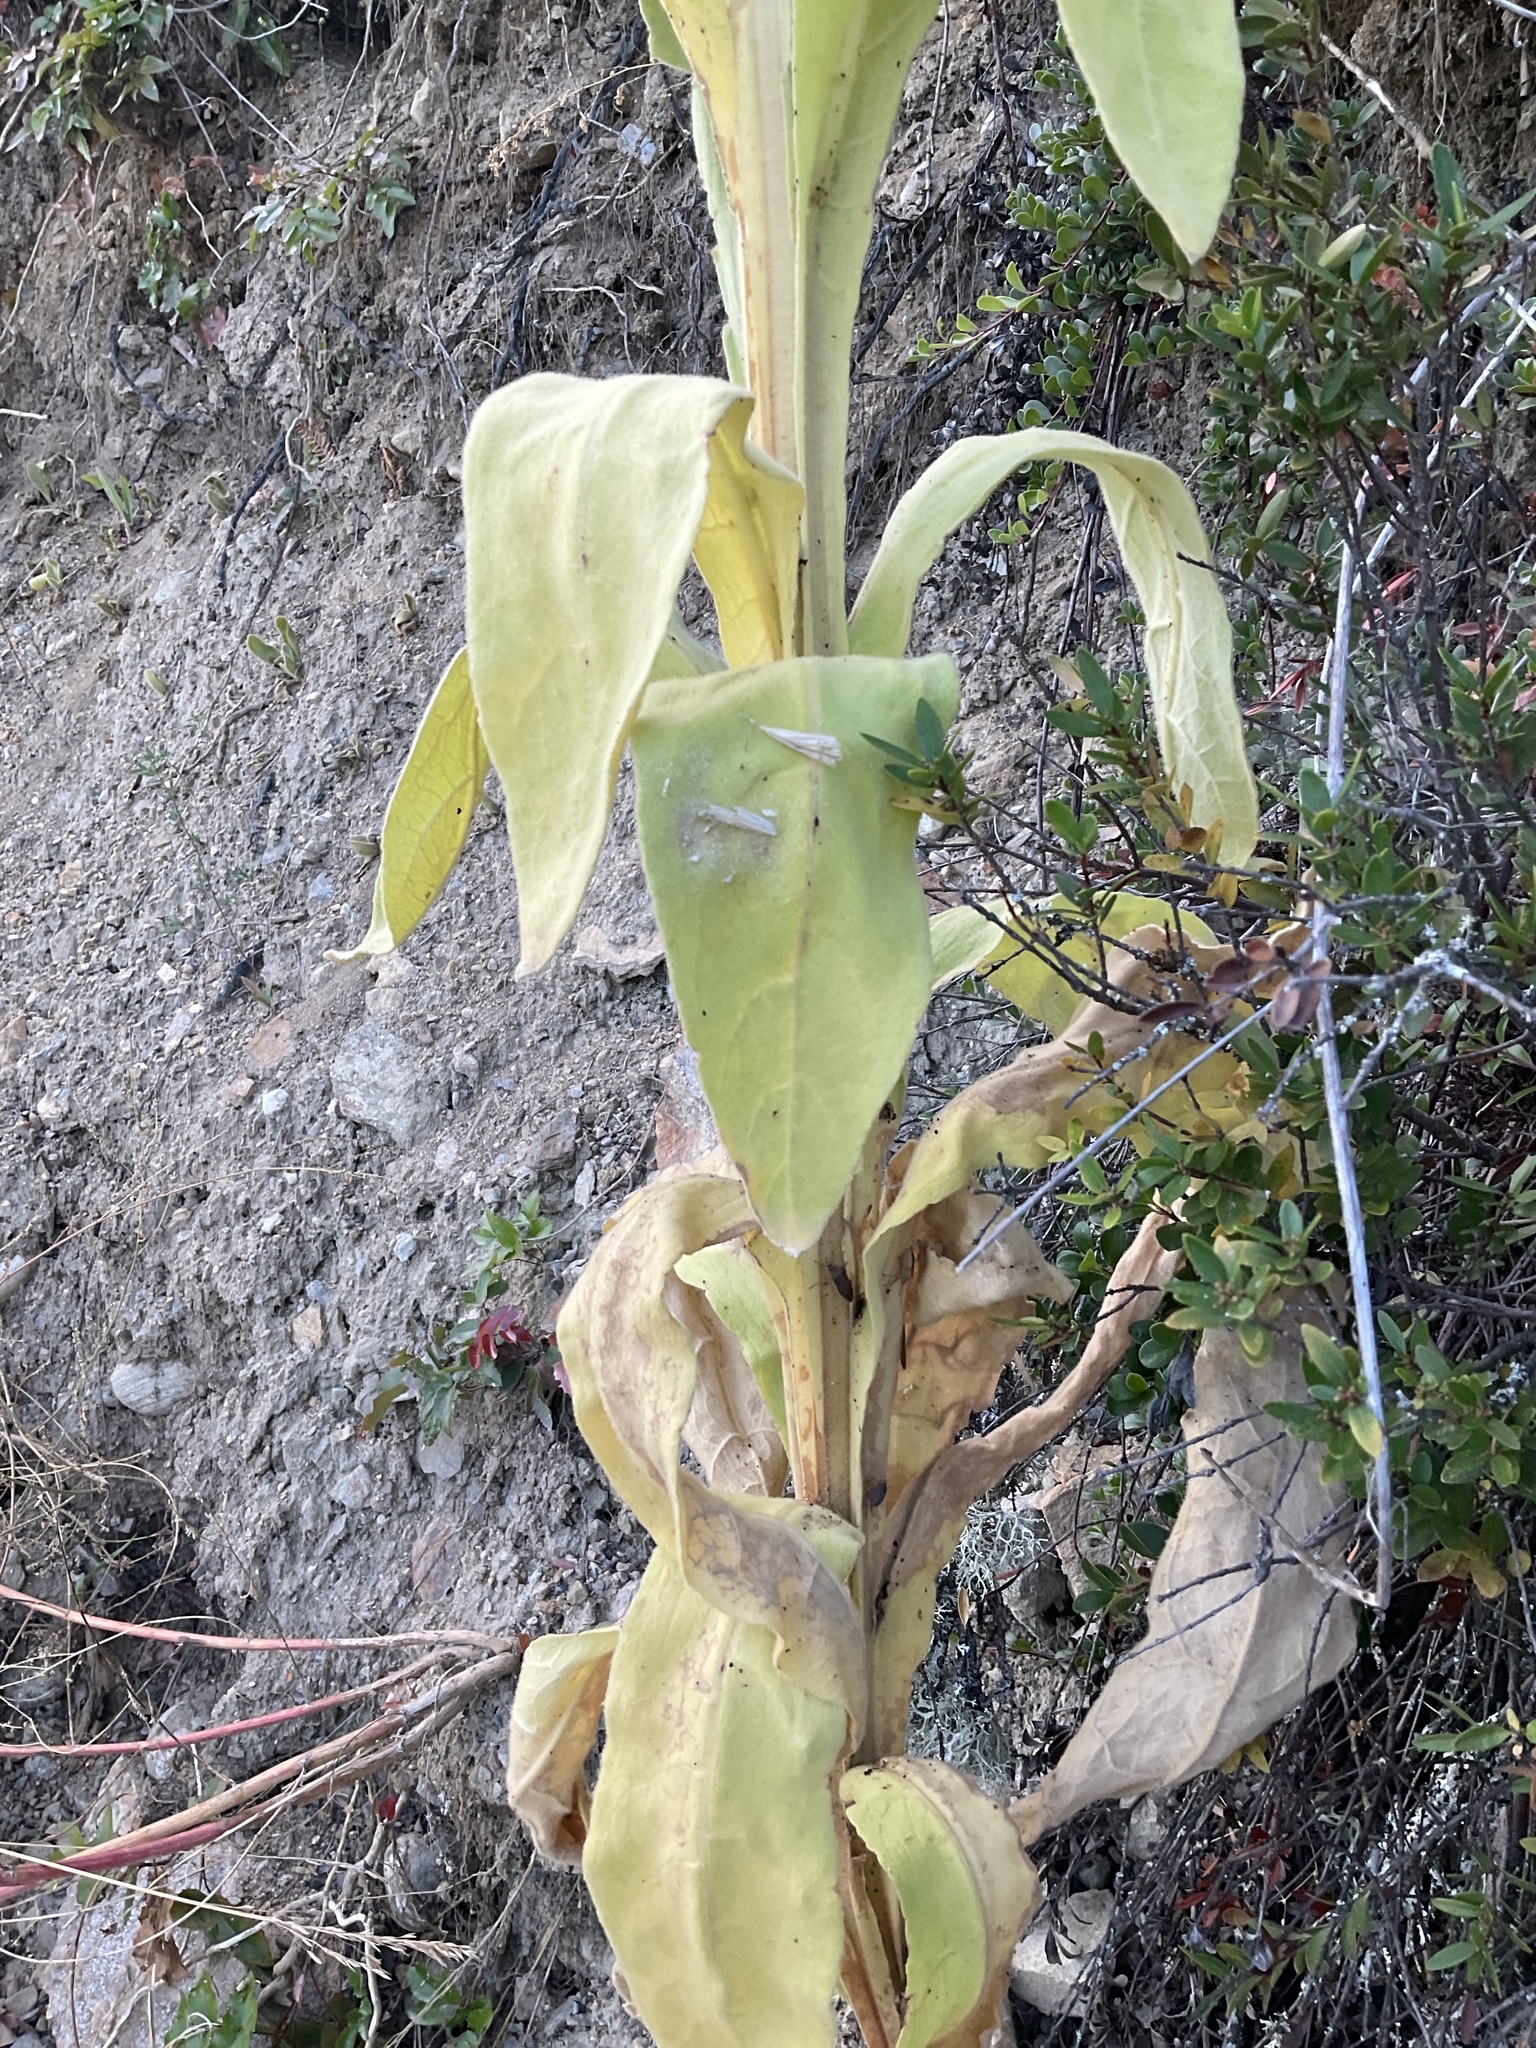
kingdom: Plantae
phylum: Tracheophyta
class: Magnoliopsida
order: Lamiales
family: Scrophulariaceae
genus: Verbascum
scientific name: Verbascum thapsus
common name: Common mullein
